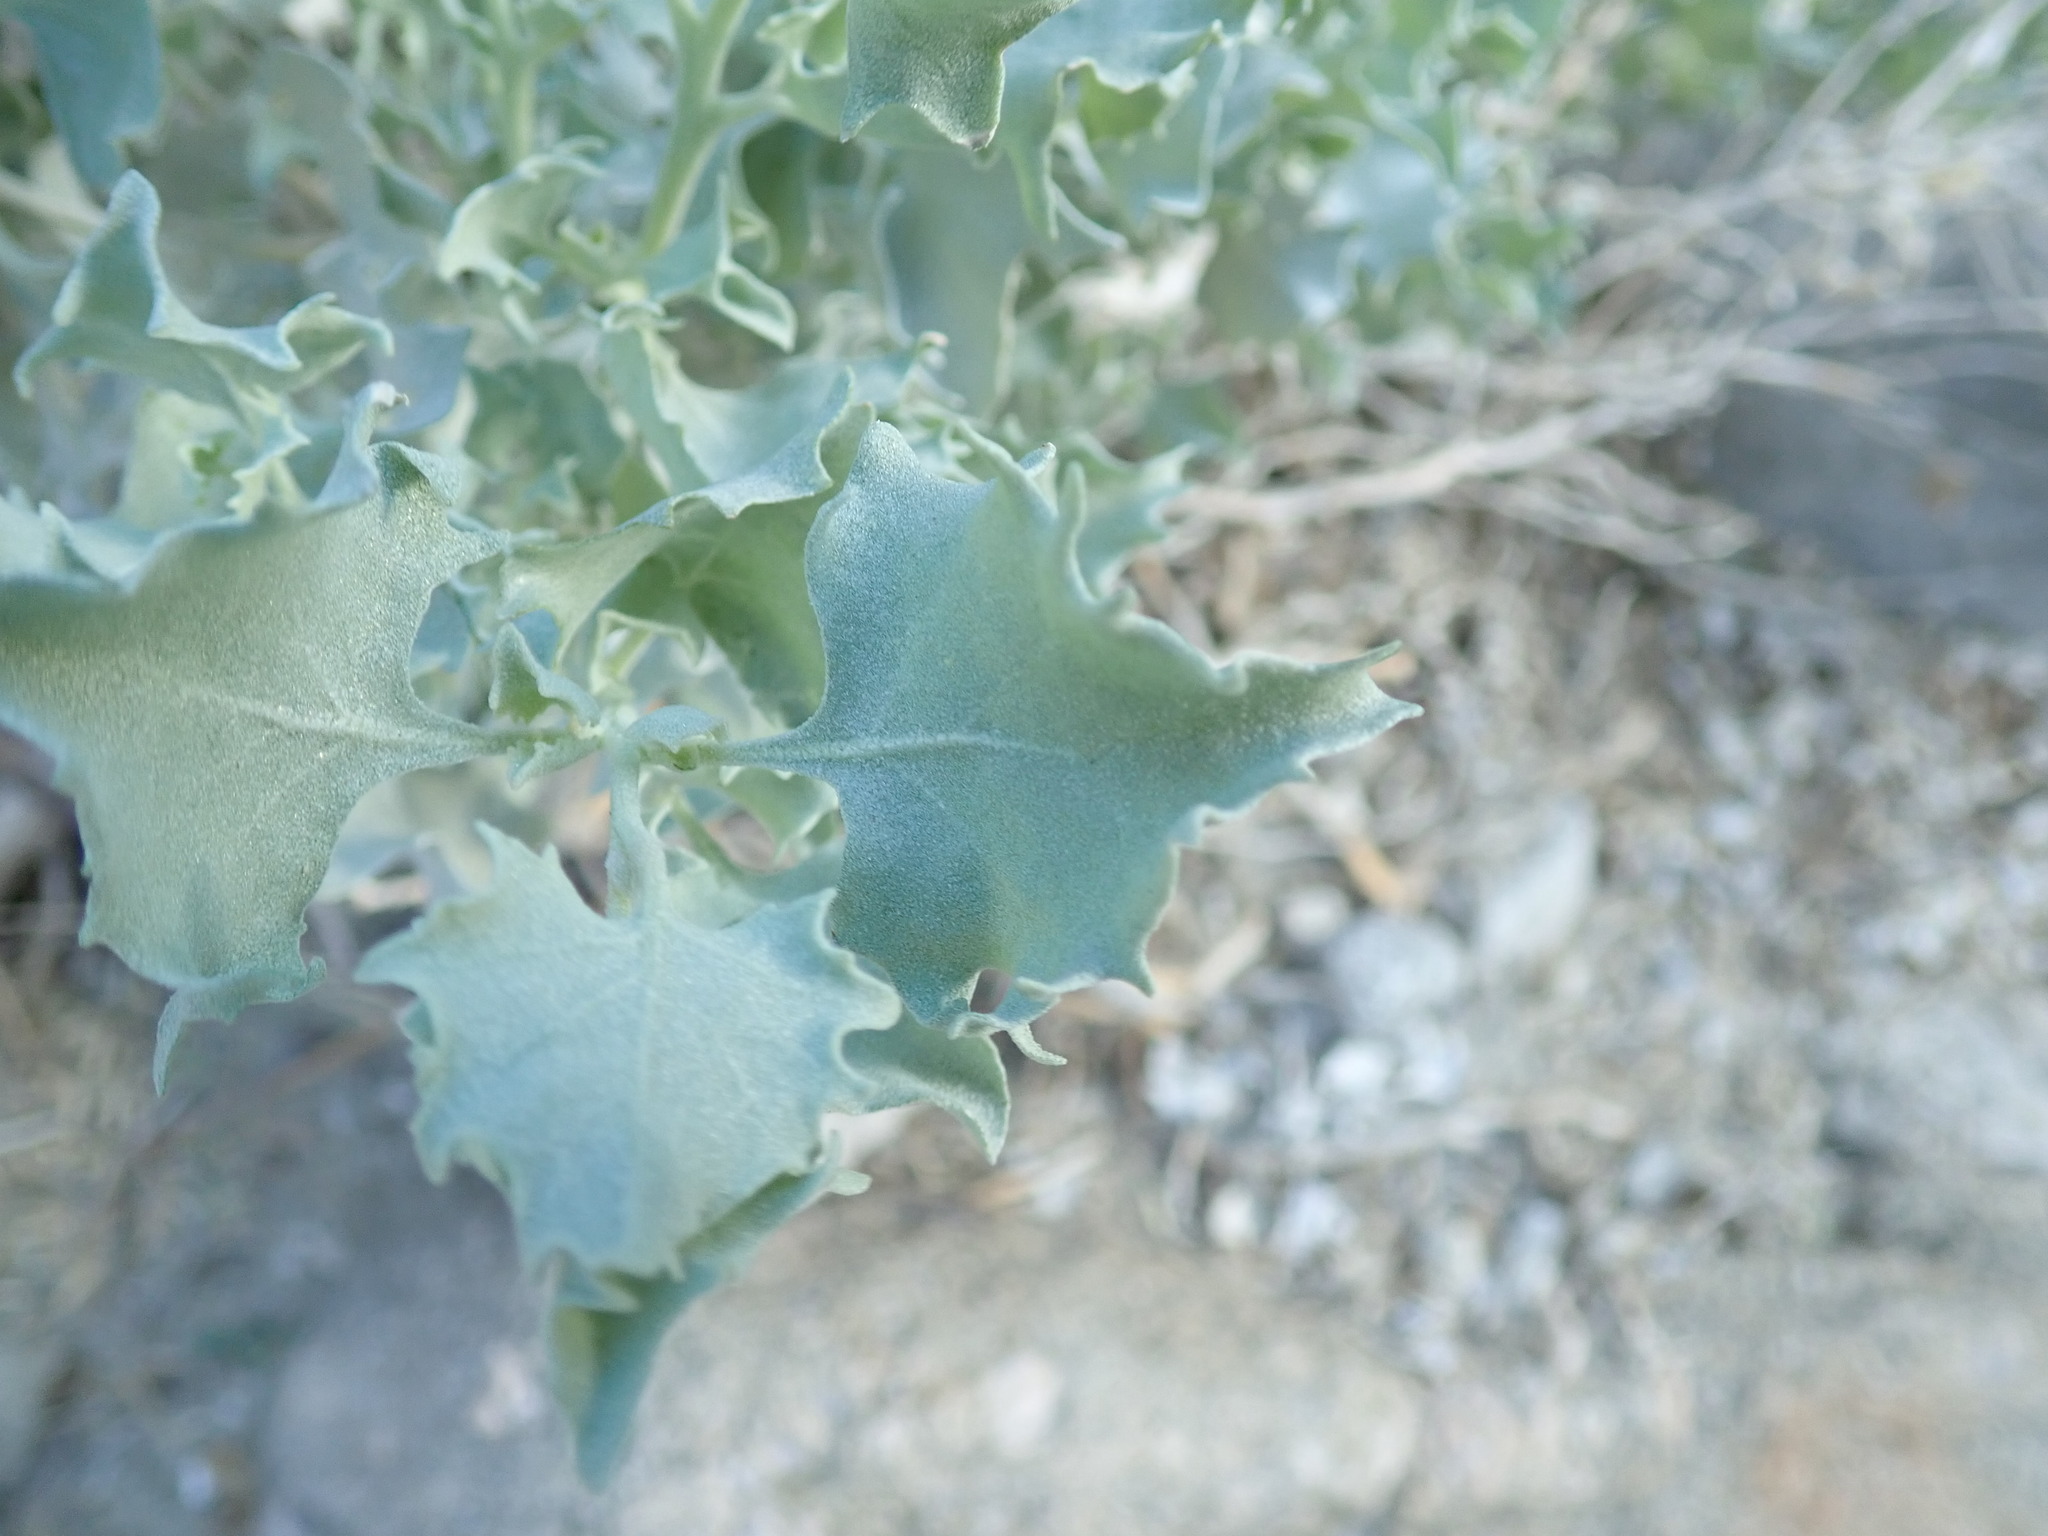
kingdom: Plantae
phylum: Tracheophyta
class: Magnoliopsida
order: Caryophyllales
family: Amaranthaceae
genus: Atriplex
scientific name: Atriplex hymenelytra
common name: Desert-holly
